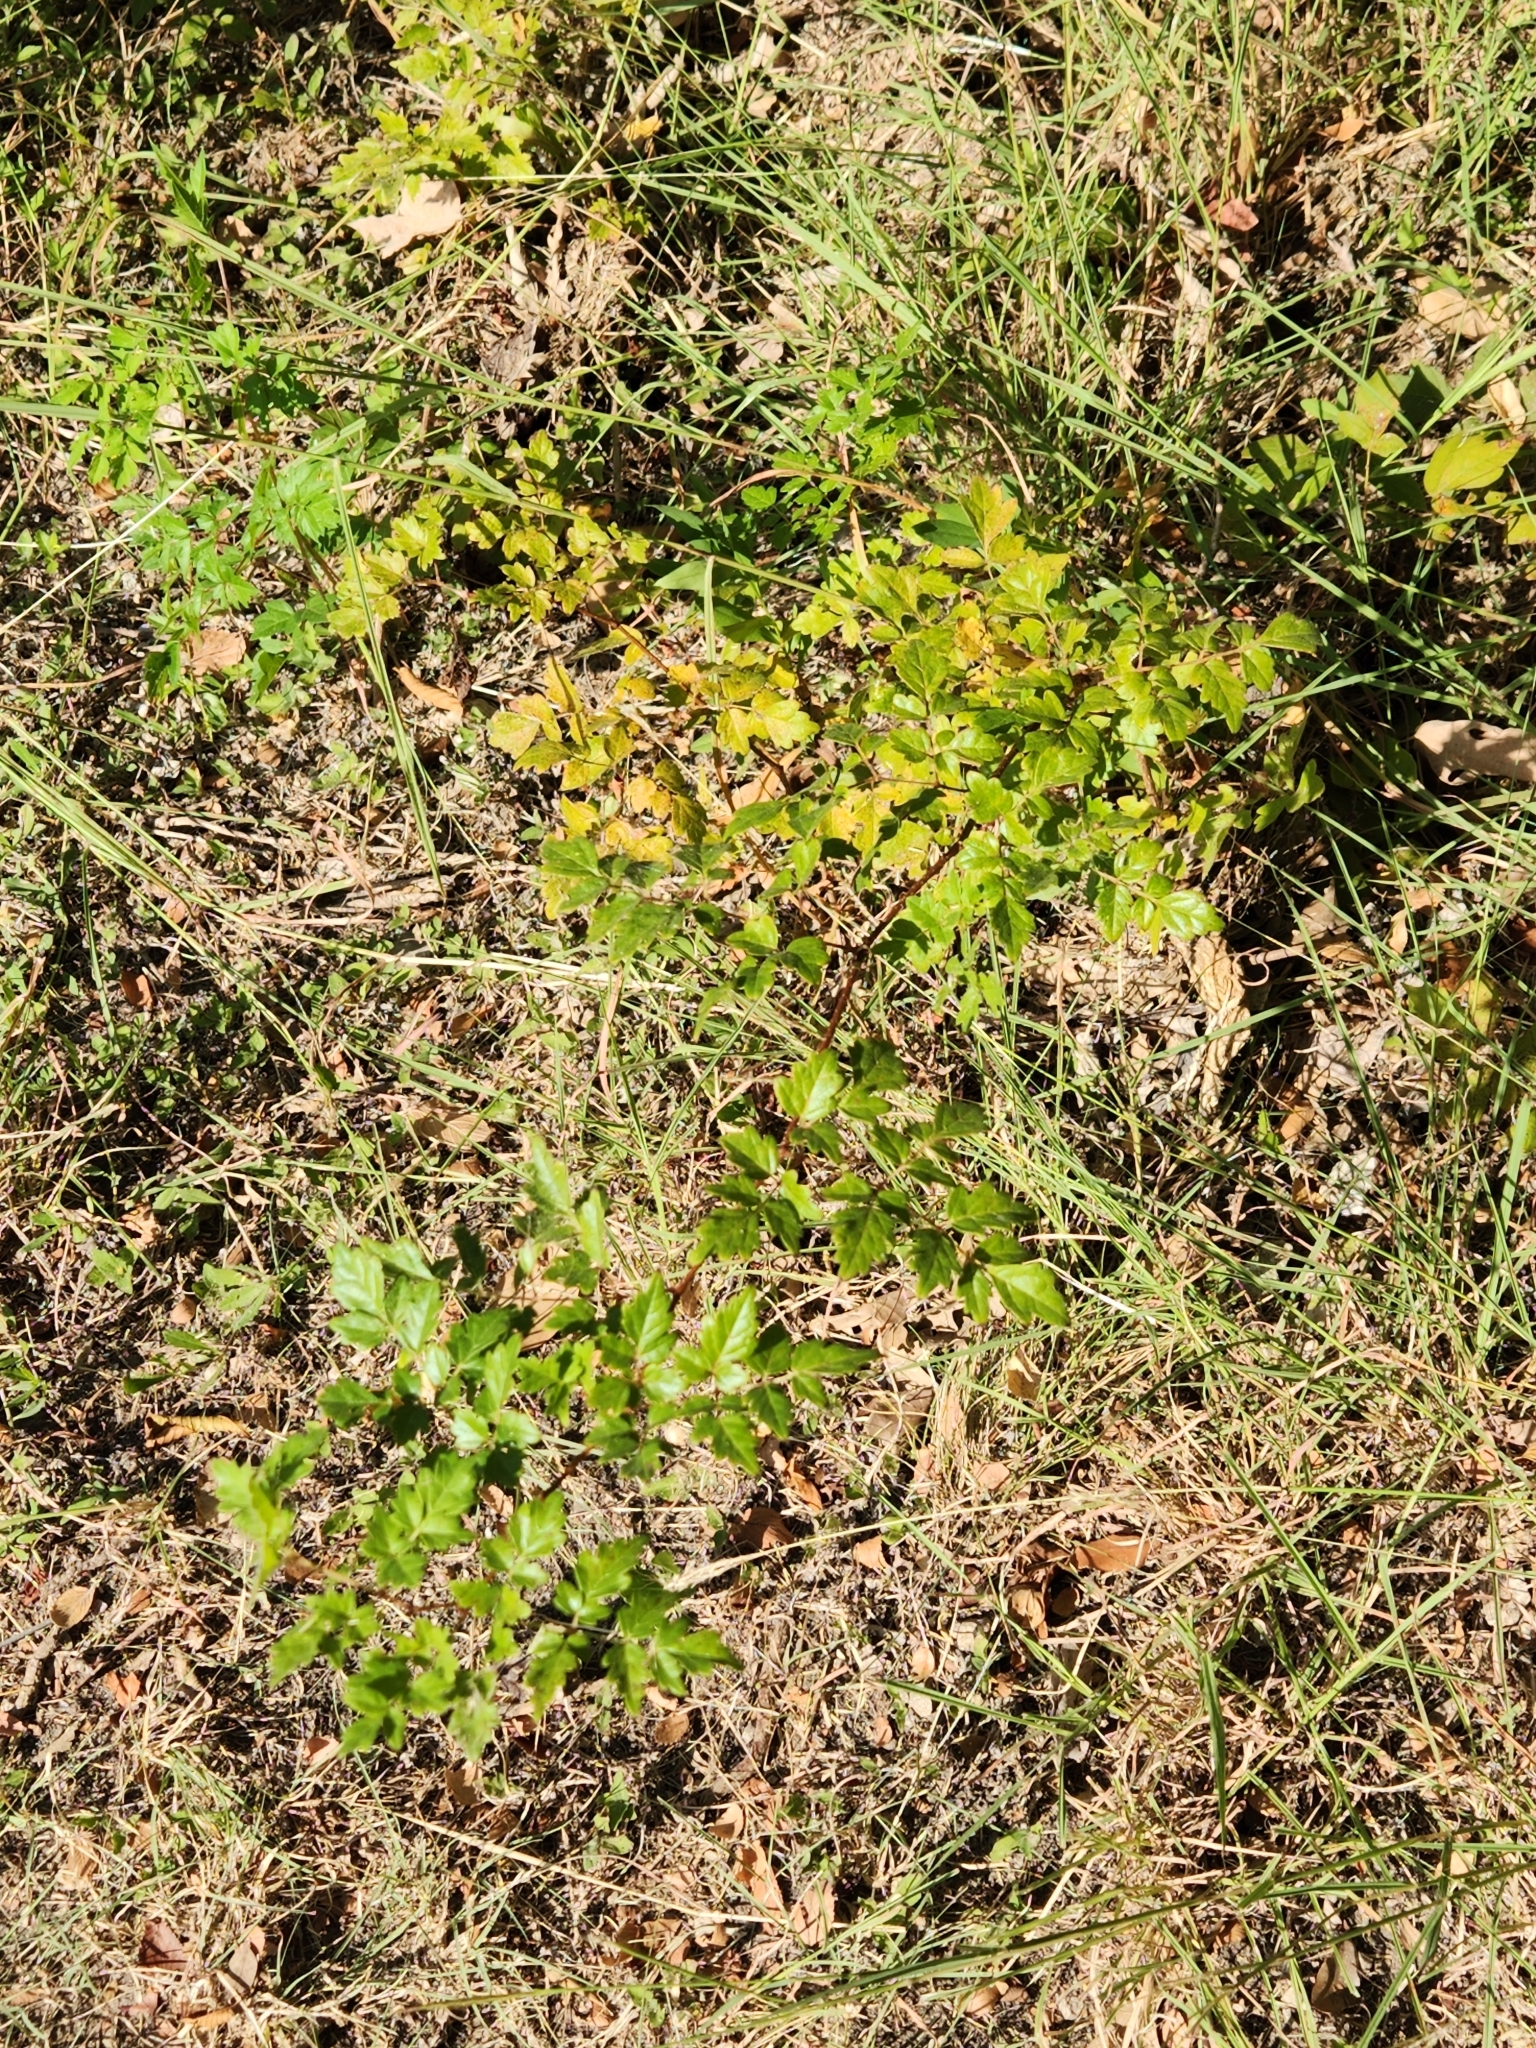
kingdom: Plantae
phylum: Tracheophyta
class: Magnoliopsida
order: Vitales
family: Vitaceae
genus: Nekemias
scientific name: Nekemias arborea
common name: Peppervine
